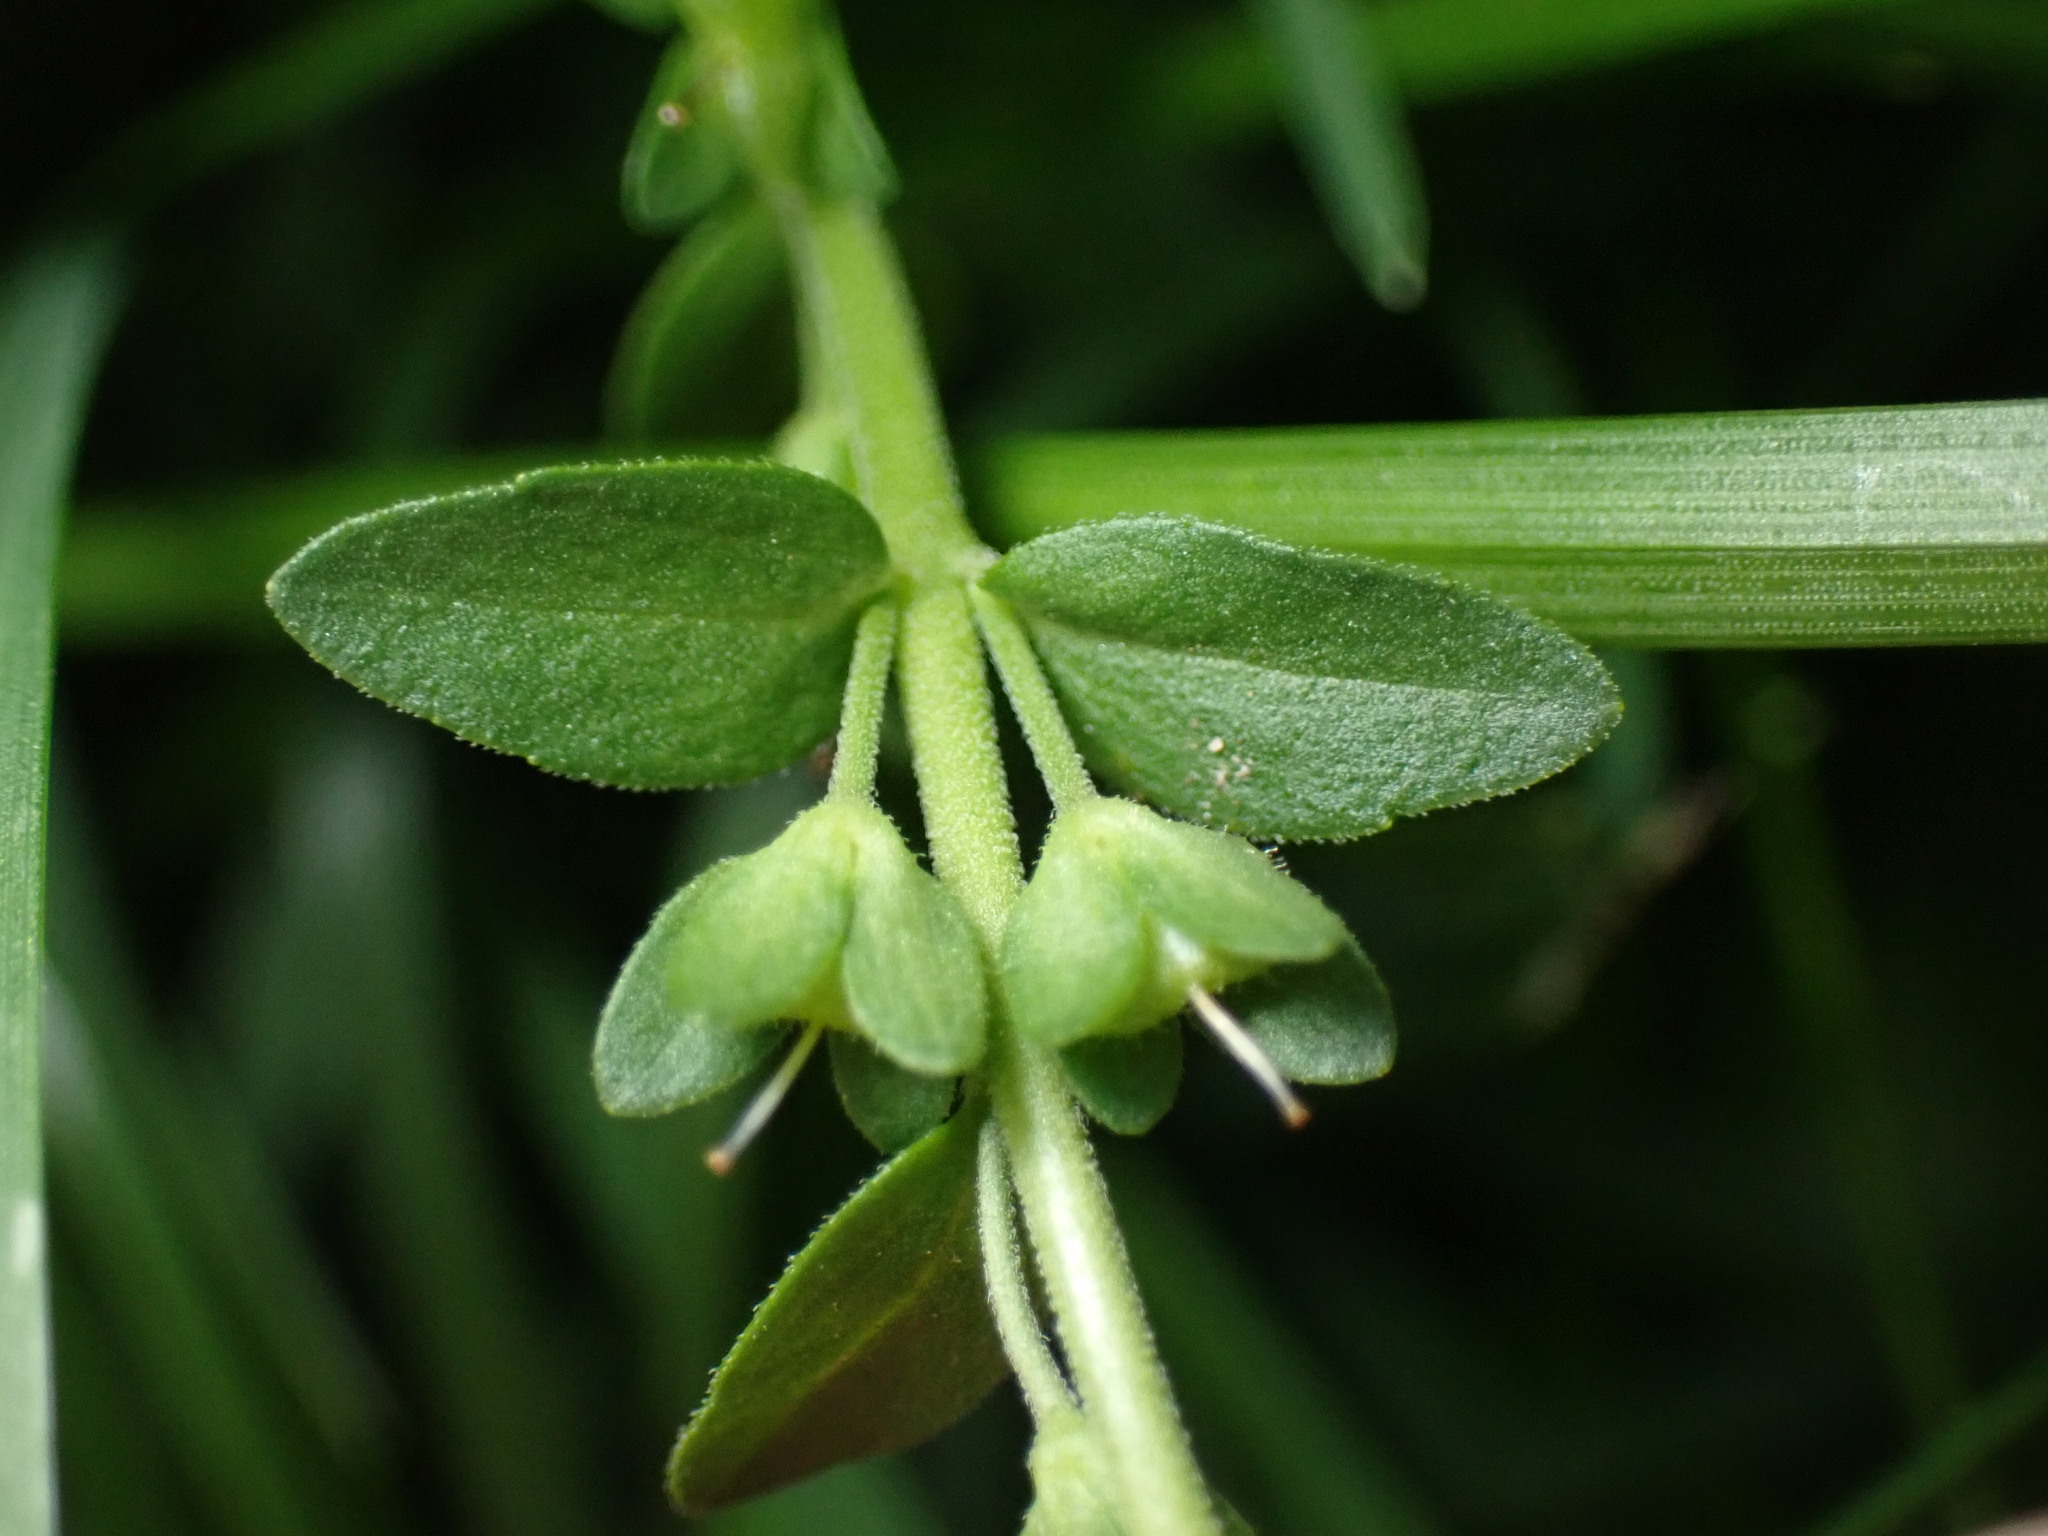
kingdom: Plantae
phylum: Tracheophyta
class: Magnoliopsida
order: Lamiales
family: Plantaginaceae
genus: Veronica
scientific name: Veronica serpyllifolia
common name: Thyme-leaved speedwell
